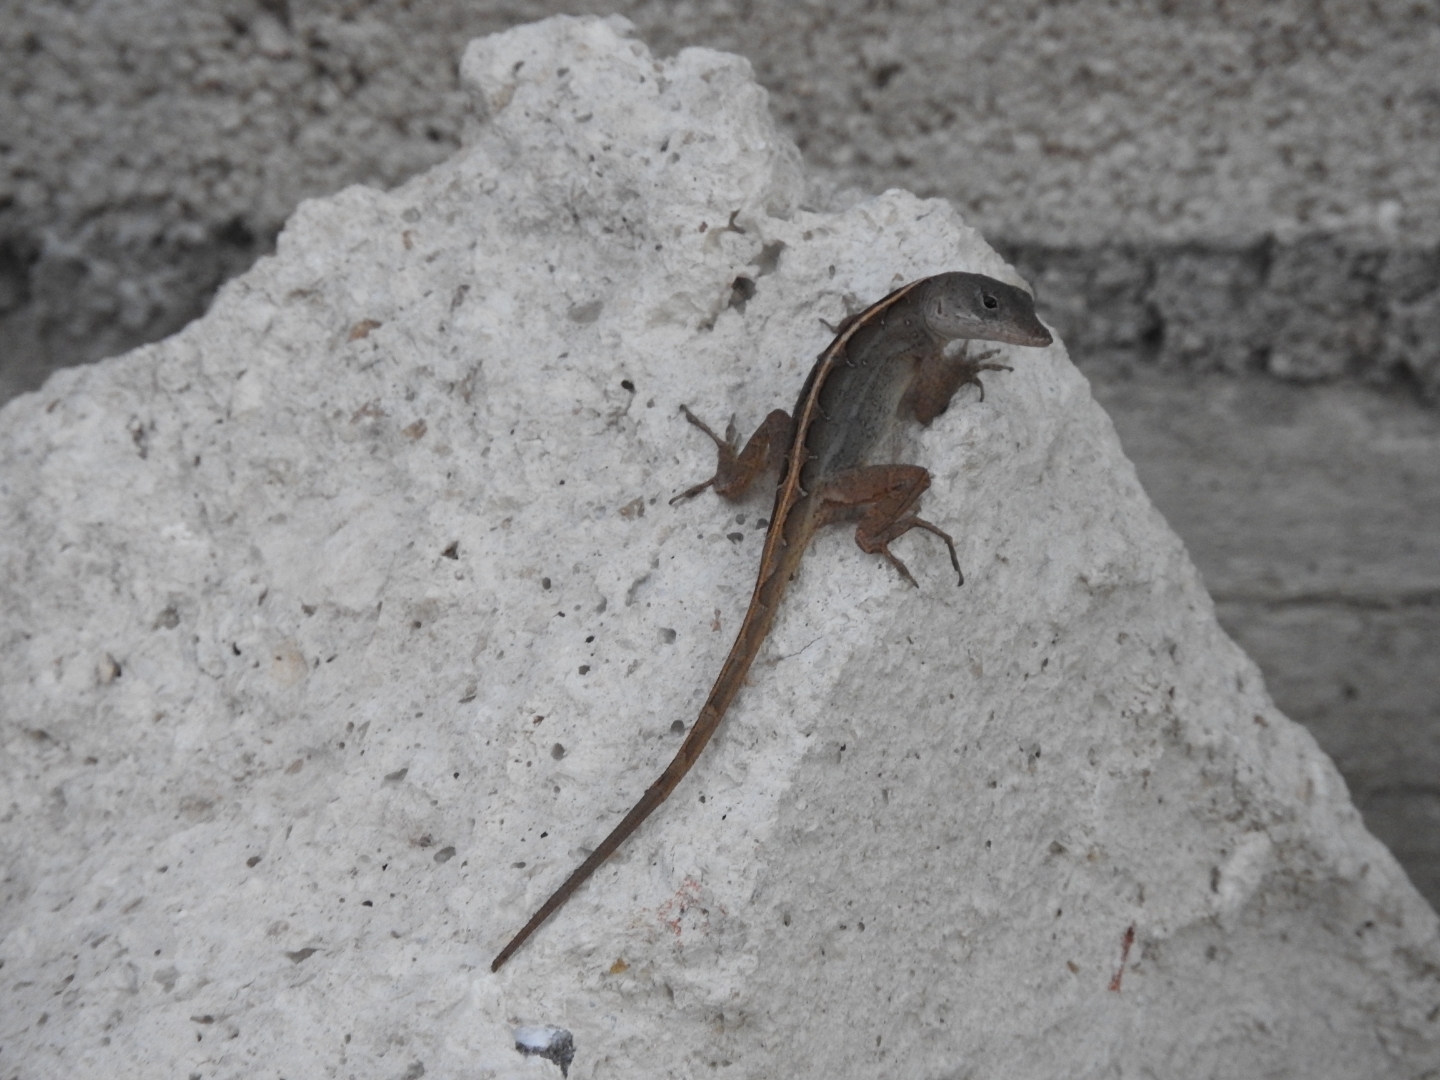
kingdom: Animalia
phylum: Chordata
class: Squamata
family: Dactyloidae
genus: Anolis
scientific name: Anolis sagrei
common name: Brown anole
